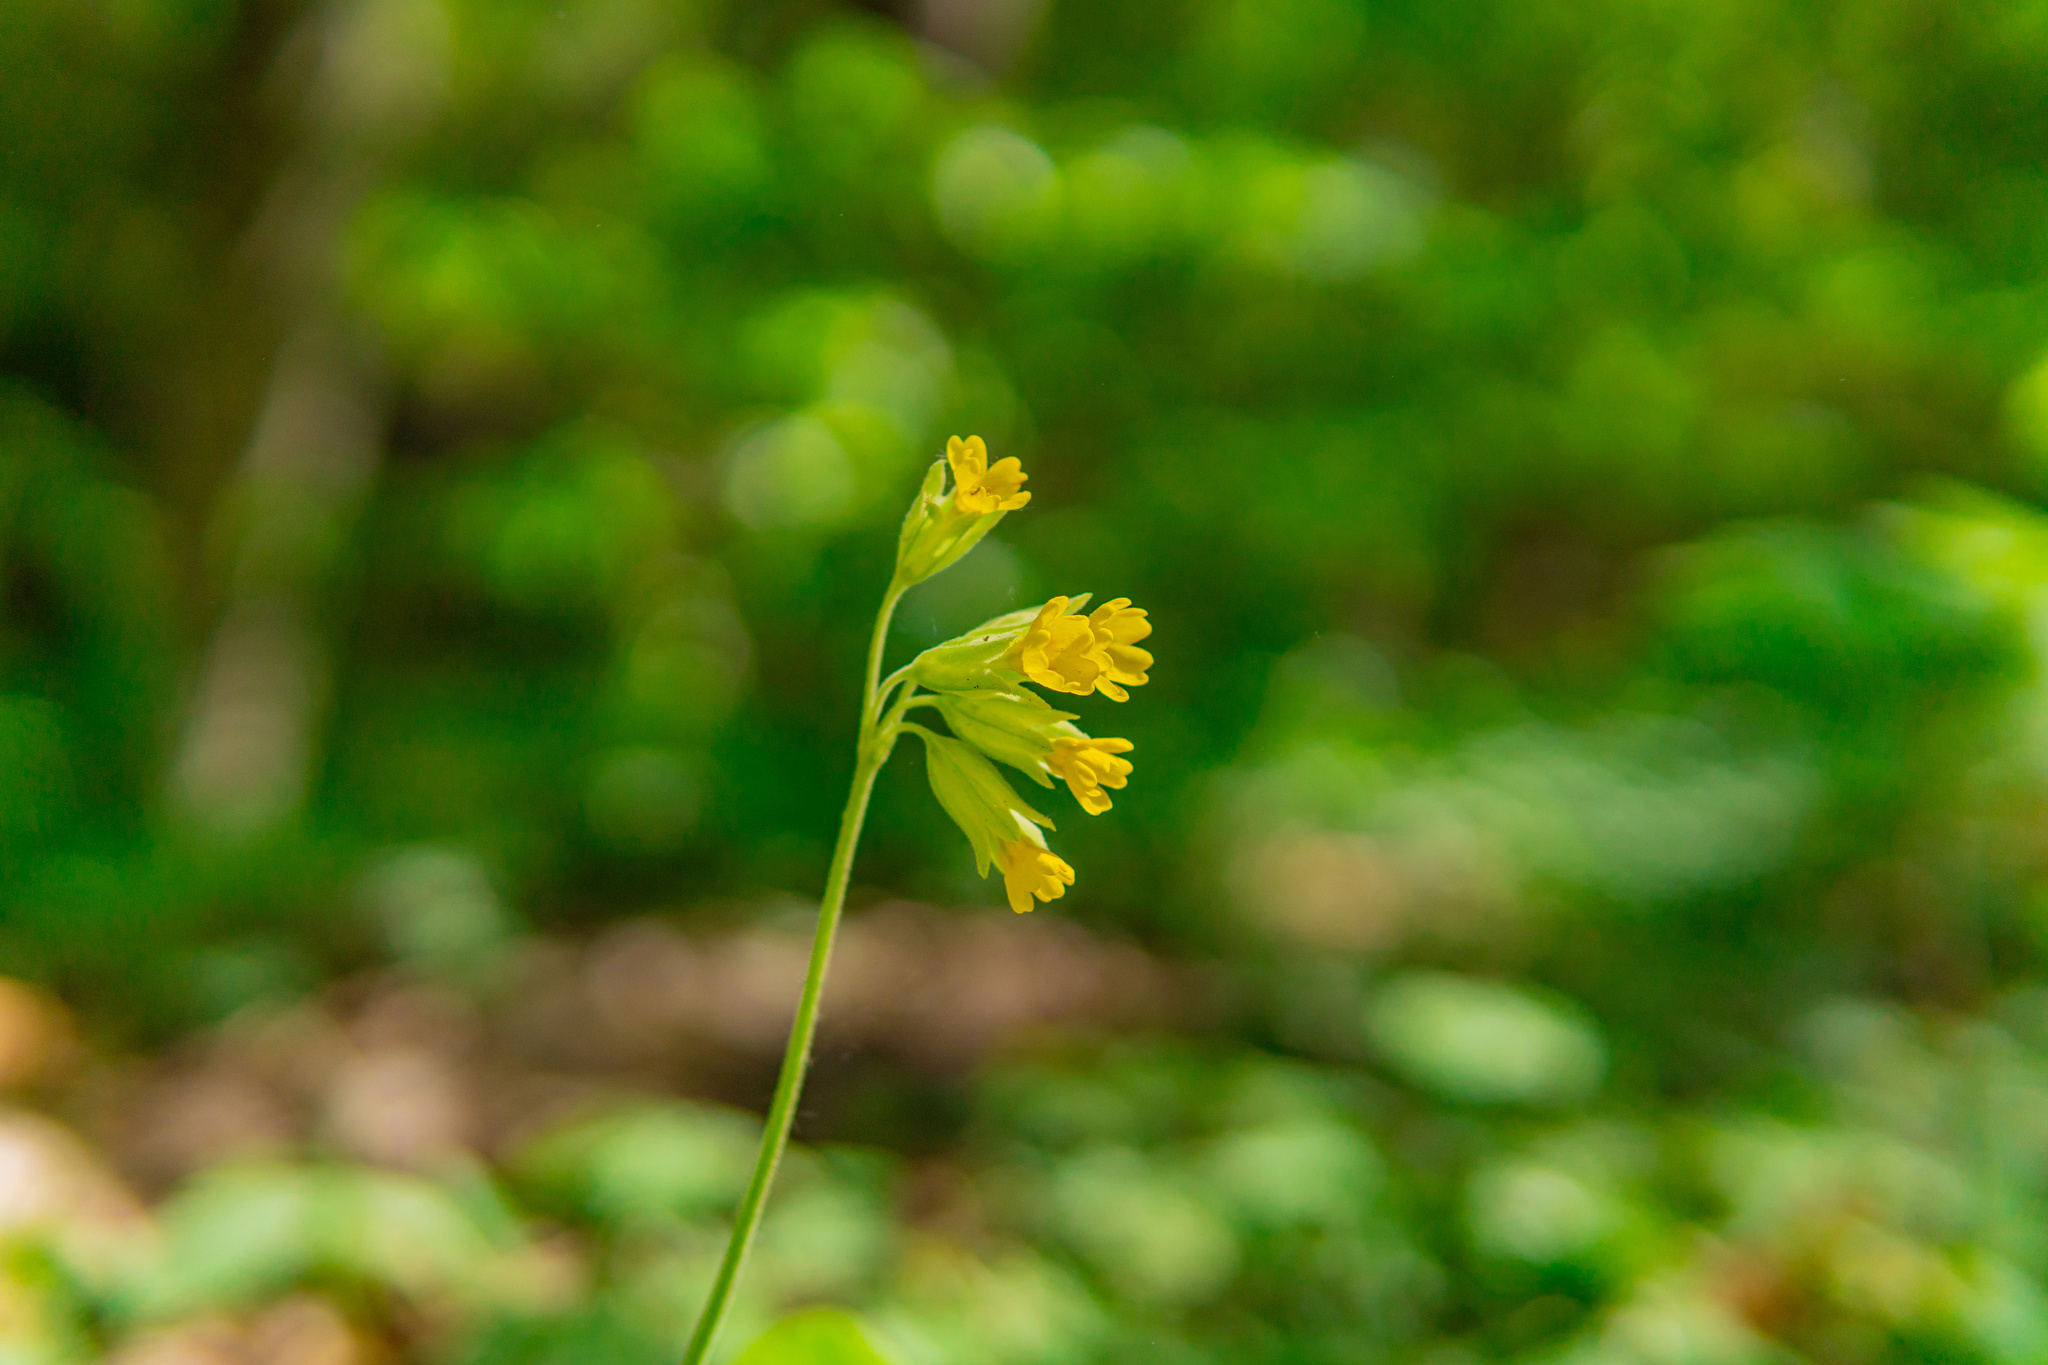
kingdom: Plantae
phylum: Tracheophyta
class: Magnoliopsida
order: Ericales
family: Primulaceae
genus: Primula
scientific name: Primula veris
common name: Cowslip
